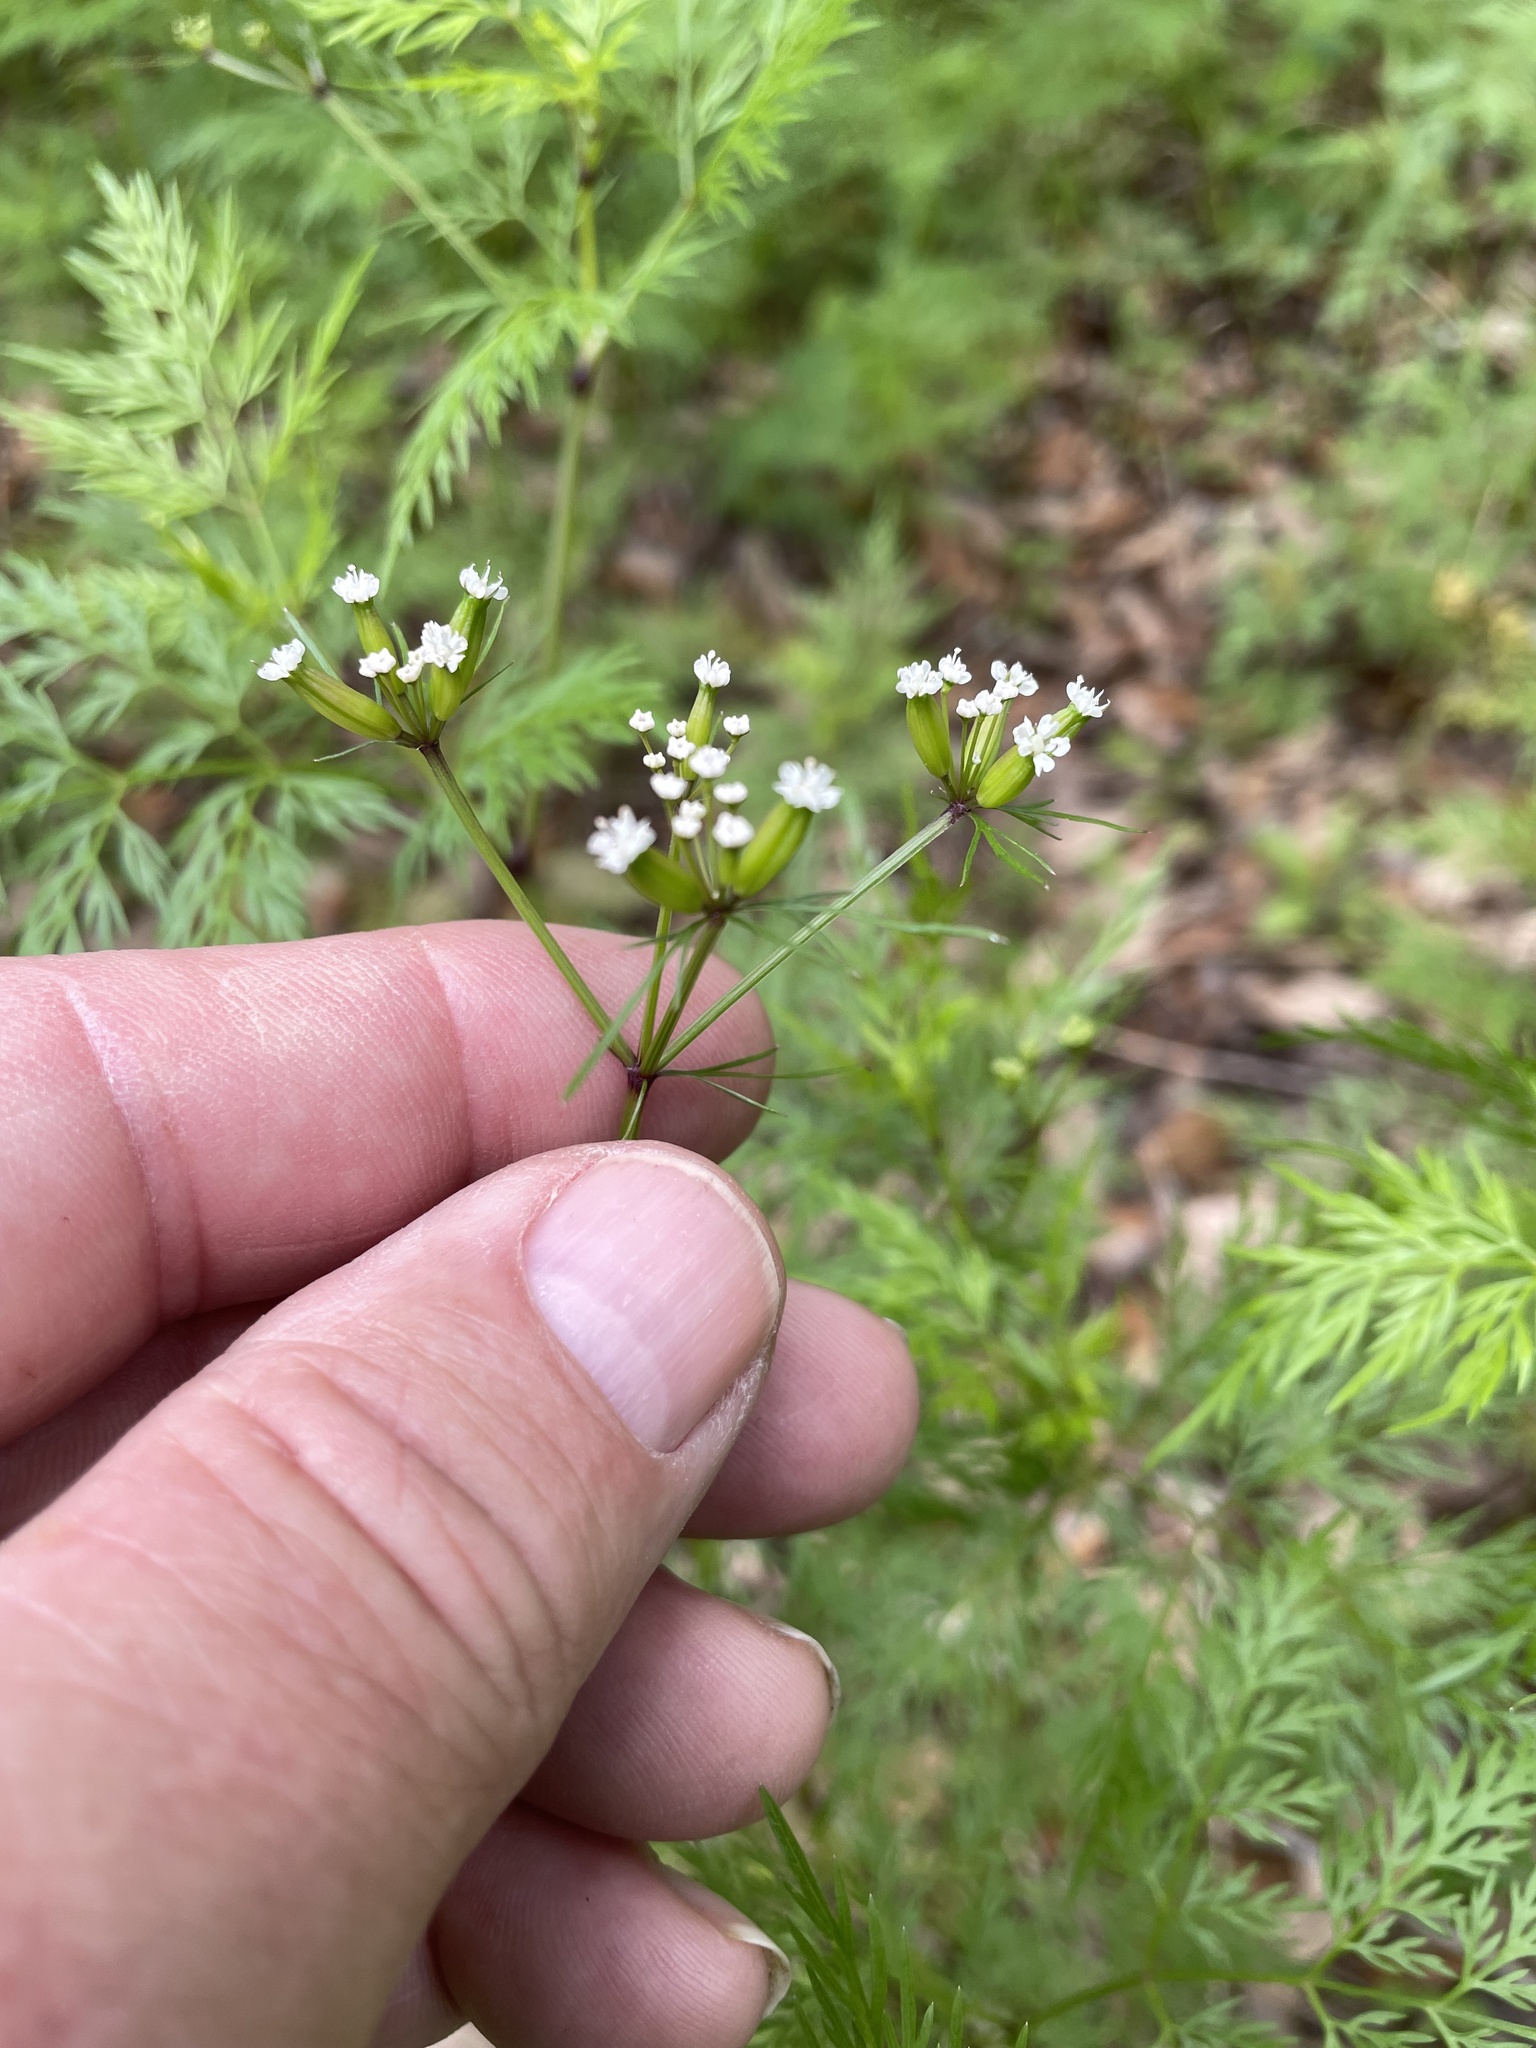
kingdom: Plantae
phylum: Tracheophyta
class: Magnoliopsida
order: Apiales
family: Apiaceae
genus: Trepocarpus
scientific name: Trepocarpus aethusae
